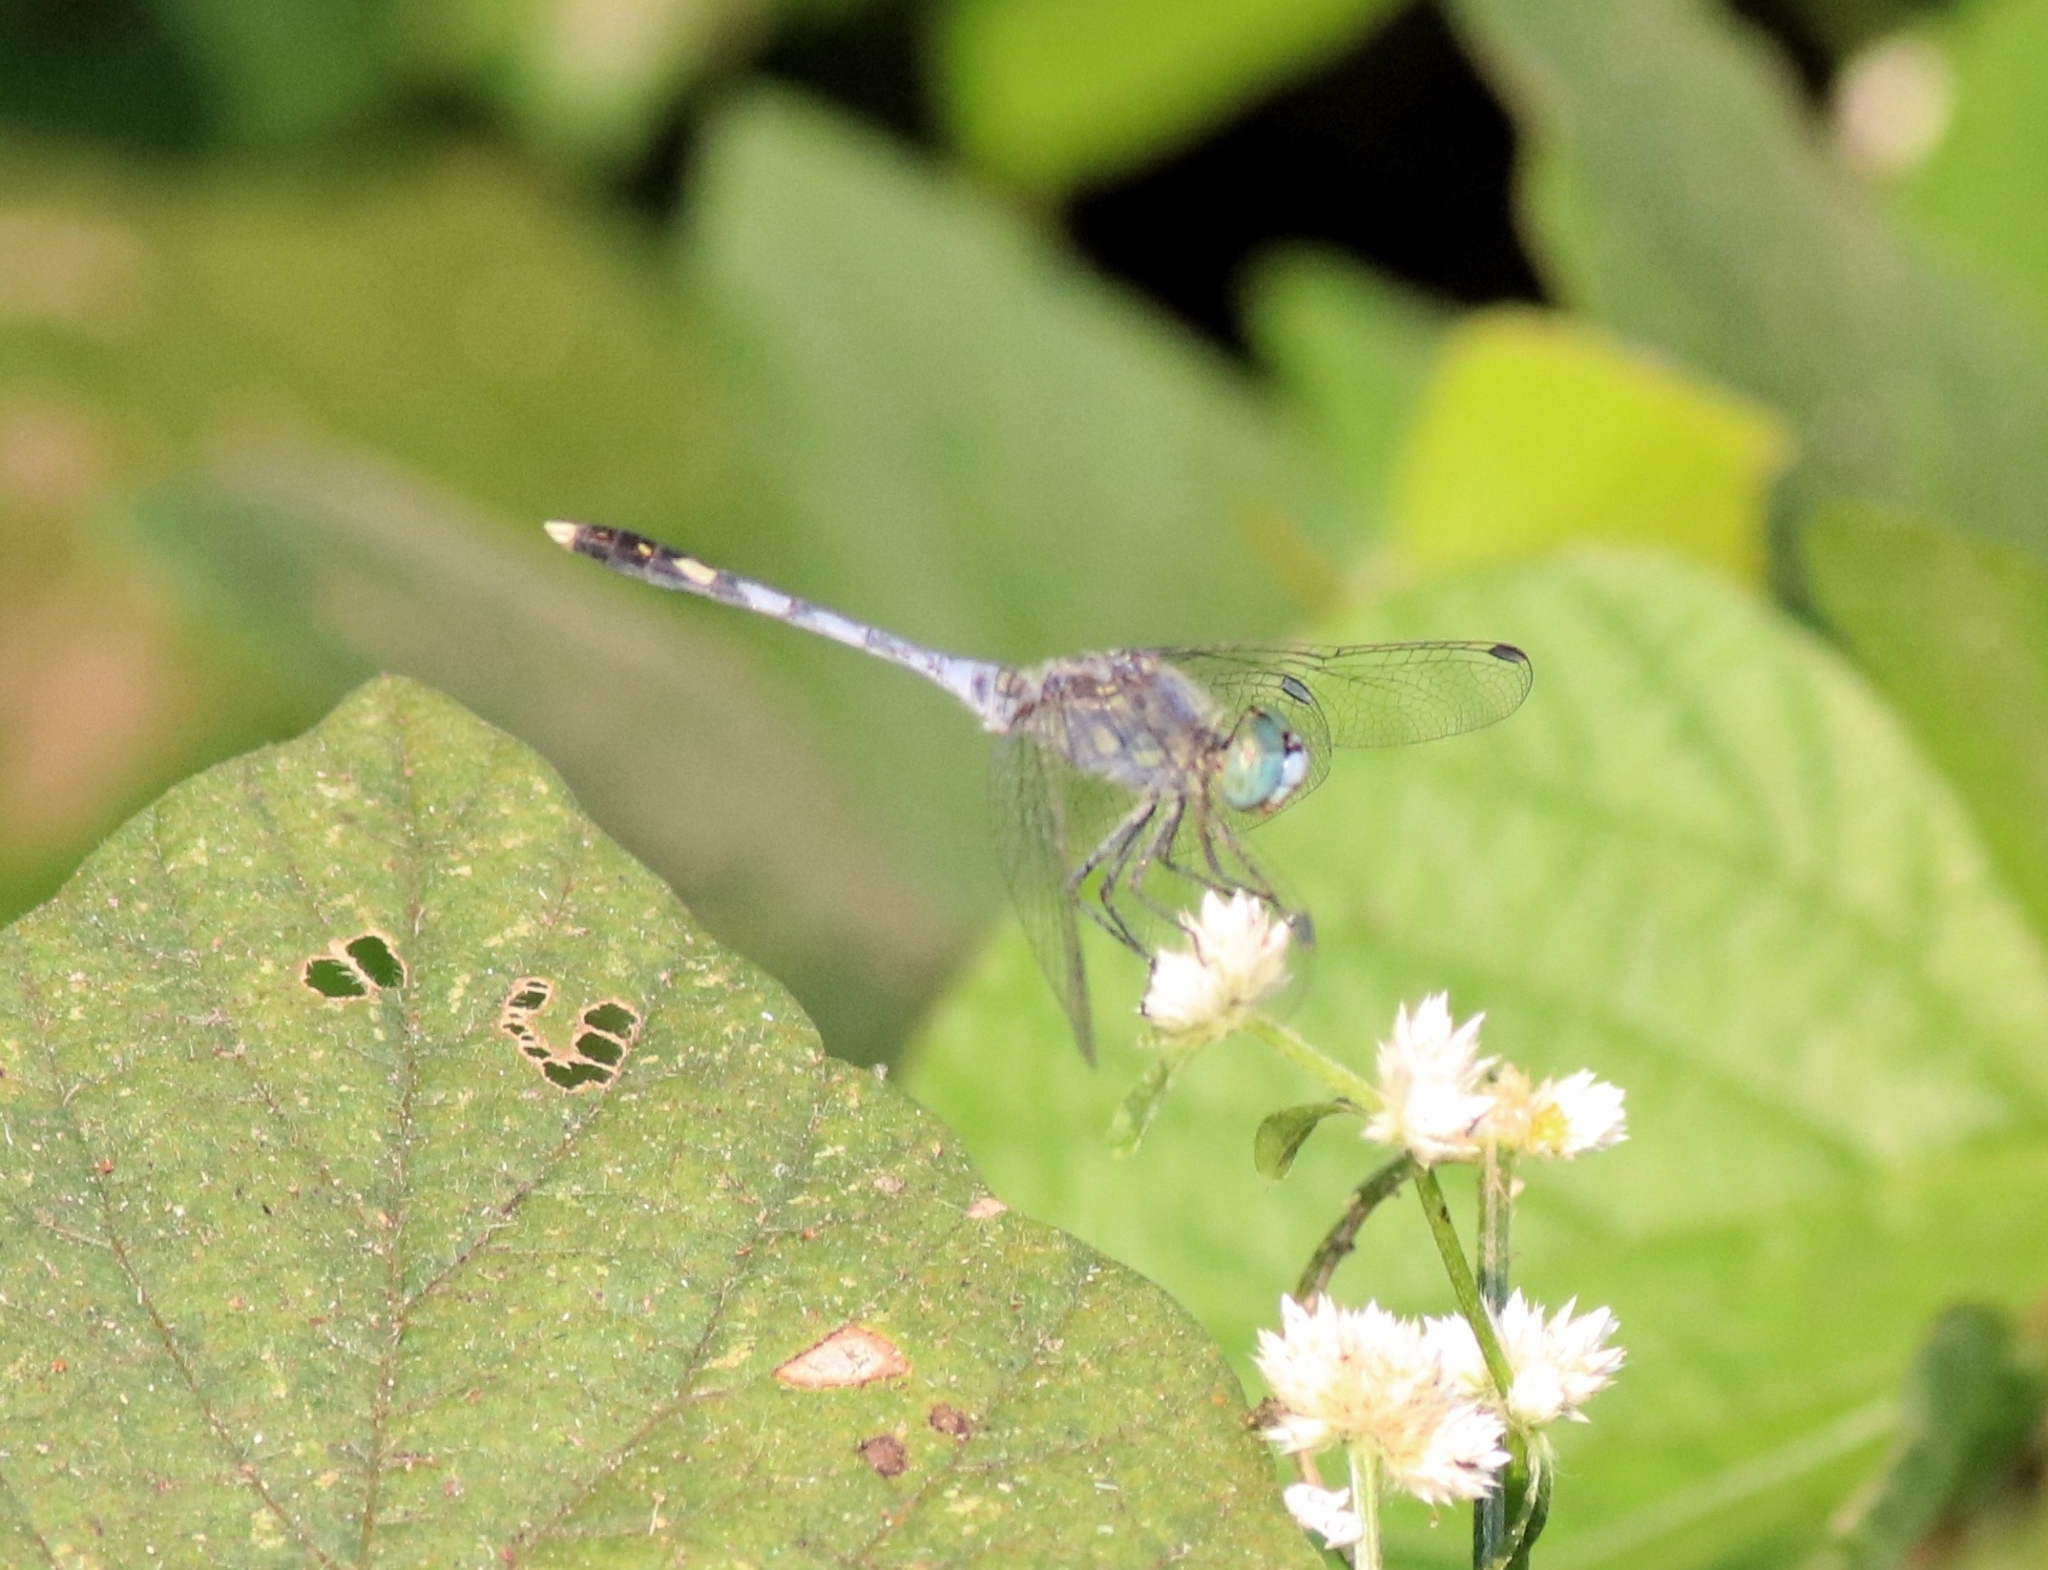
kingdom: Animalia
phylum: Arthropoda
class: Insecta
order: Odonata
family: Libellulidae
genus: Diplacodes
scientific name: Diplacodes trivialis
